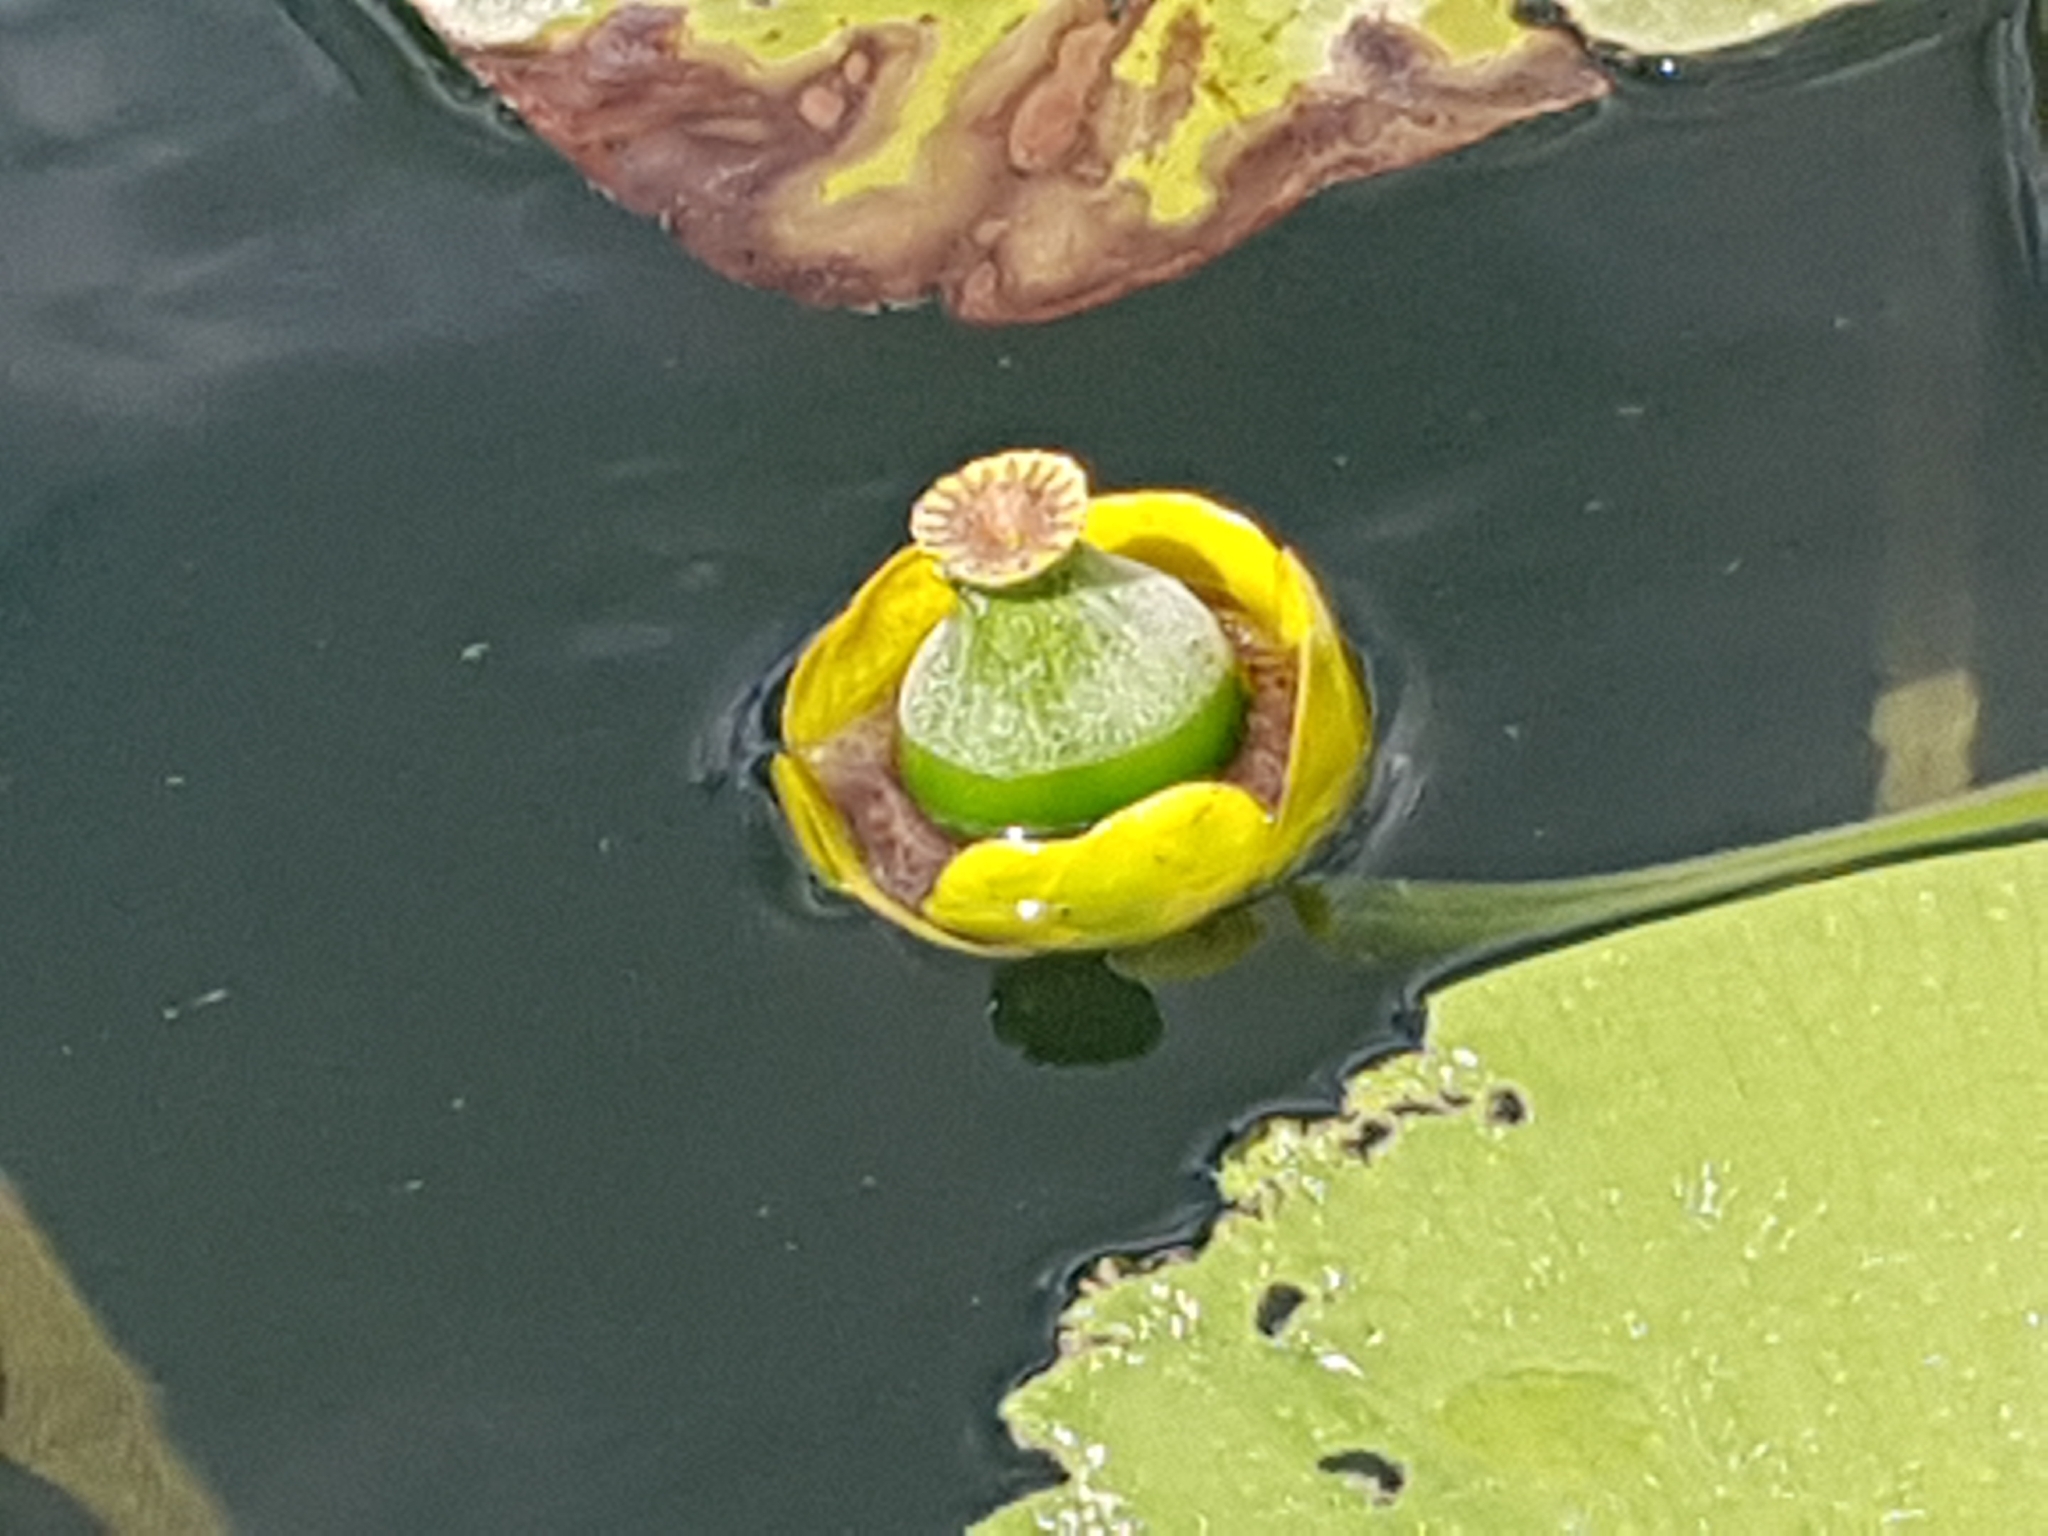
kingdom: Plantae
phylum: Tracheophyta
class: Magnoliopsida
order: Nymphaeales
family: Nymphaeaceae
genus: Nuphar
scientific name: Nuphar lutea
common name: Yellow water-lily
